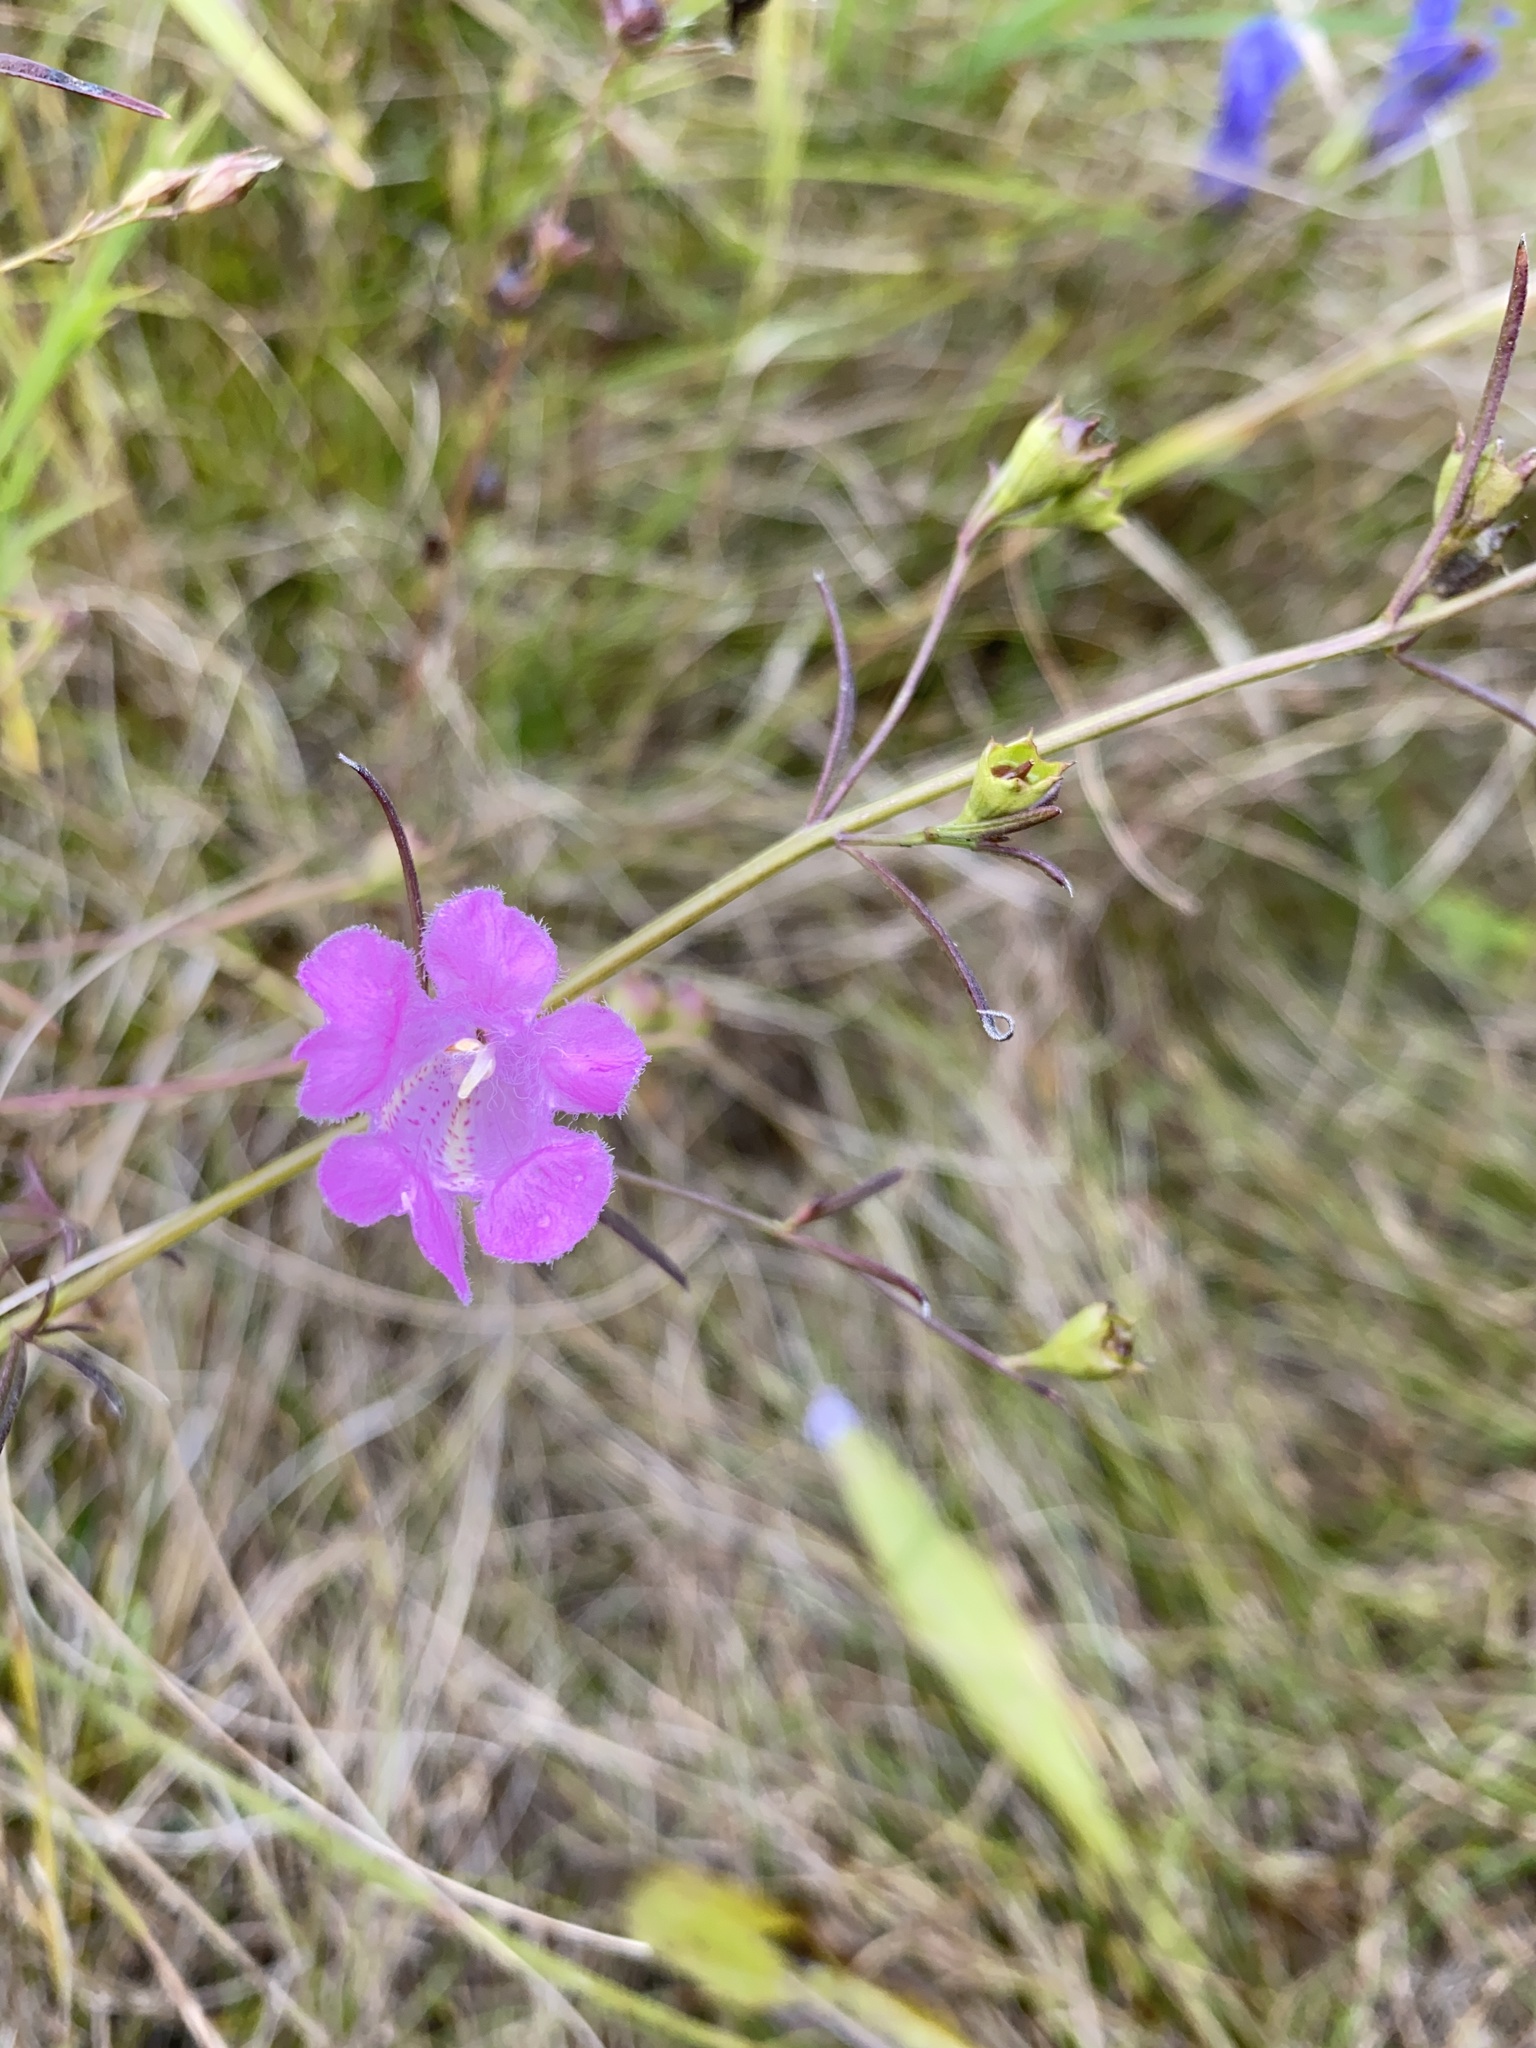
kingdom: Plantae
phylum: Tracheophyta
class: Magnoliopsida
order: Lamiales
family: Orobanchaceae
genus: Agalinis
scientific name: Agalinis purpurea
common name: Purple false foxglove
